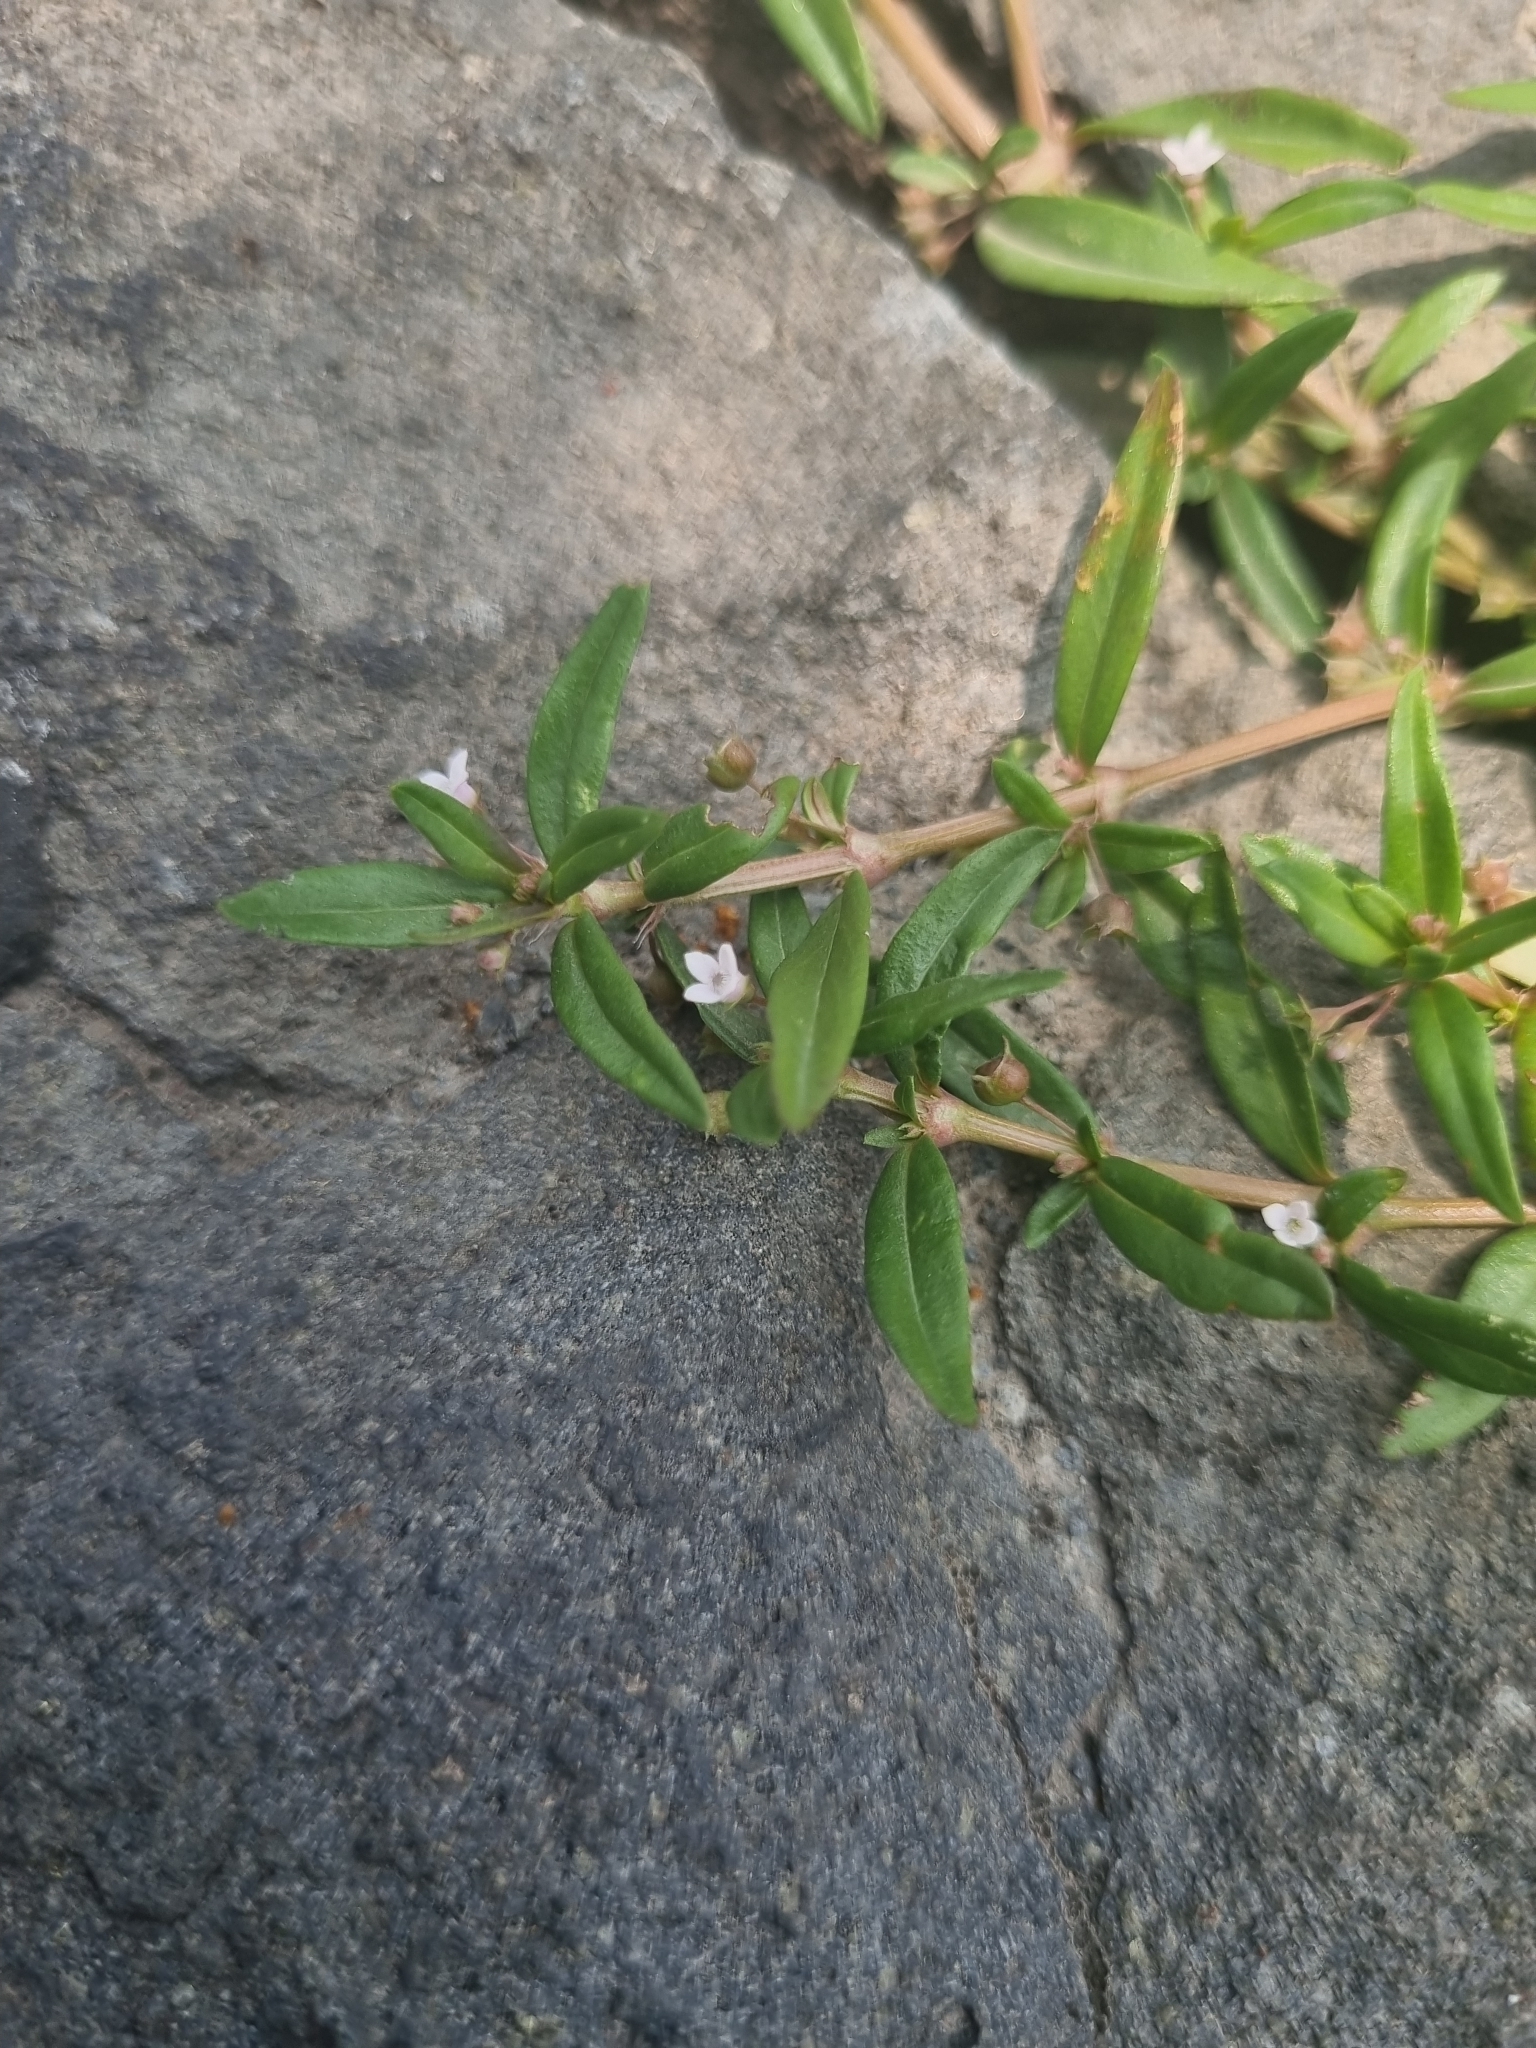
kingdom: Plantae
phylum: Tracheophyta
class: Magnoliopsida
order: Gentianales
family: Rubiaceae
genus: Oldenlandia
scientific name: Oldenlandia corymbosa
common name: Flat-top mille graines
